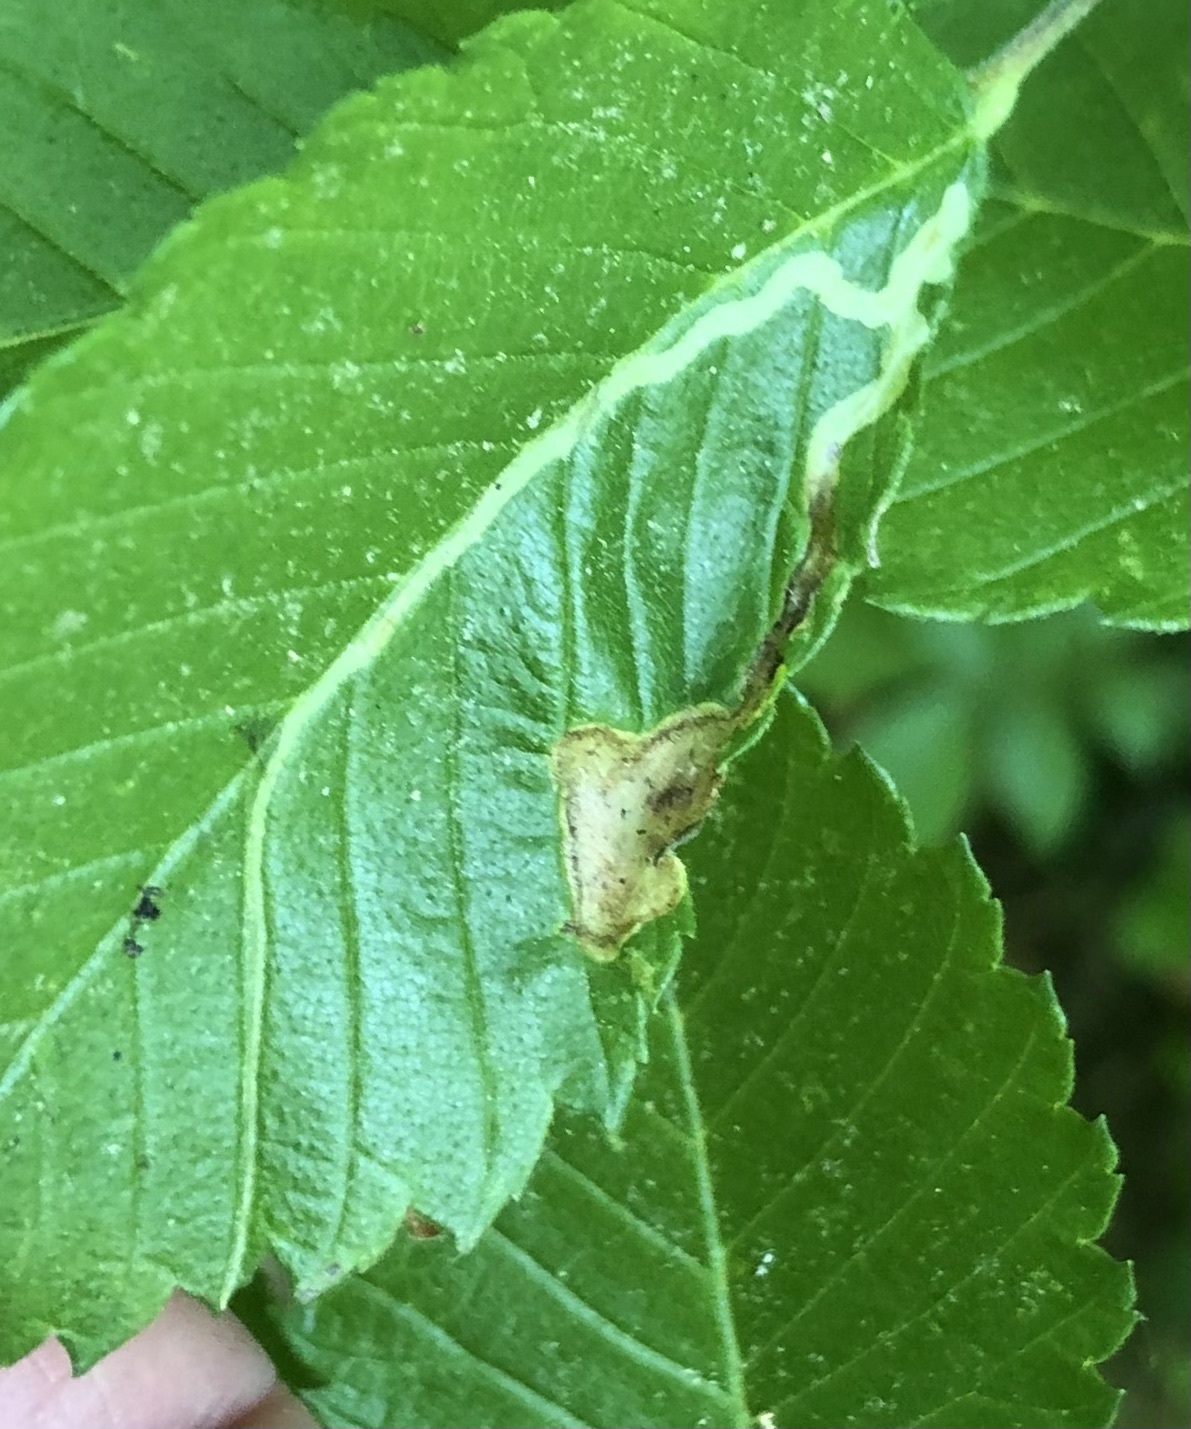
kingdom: Animalia
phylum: Arthropoda
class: Insecta
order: Diptera
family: Agromyzidae
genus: Agromyza
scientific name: Agromyza aristata
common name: Elm agromyzid leafminer
